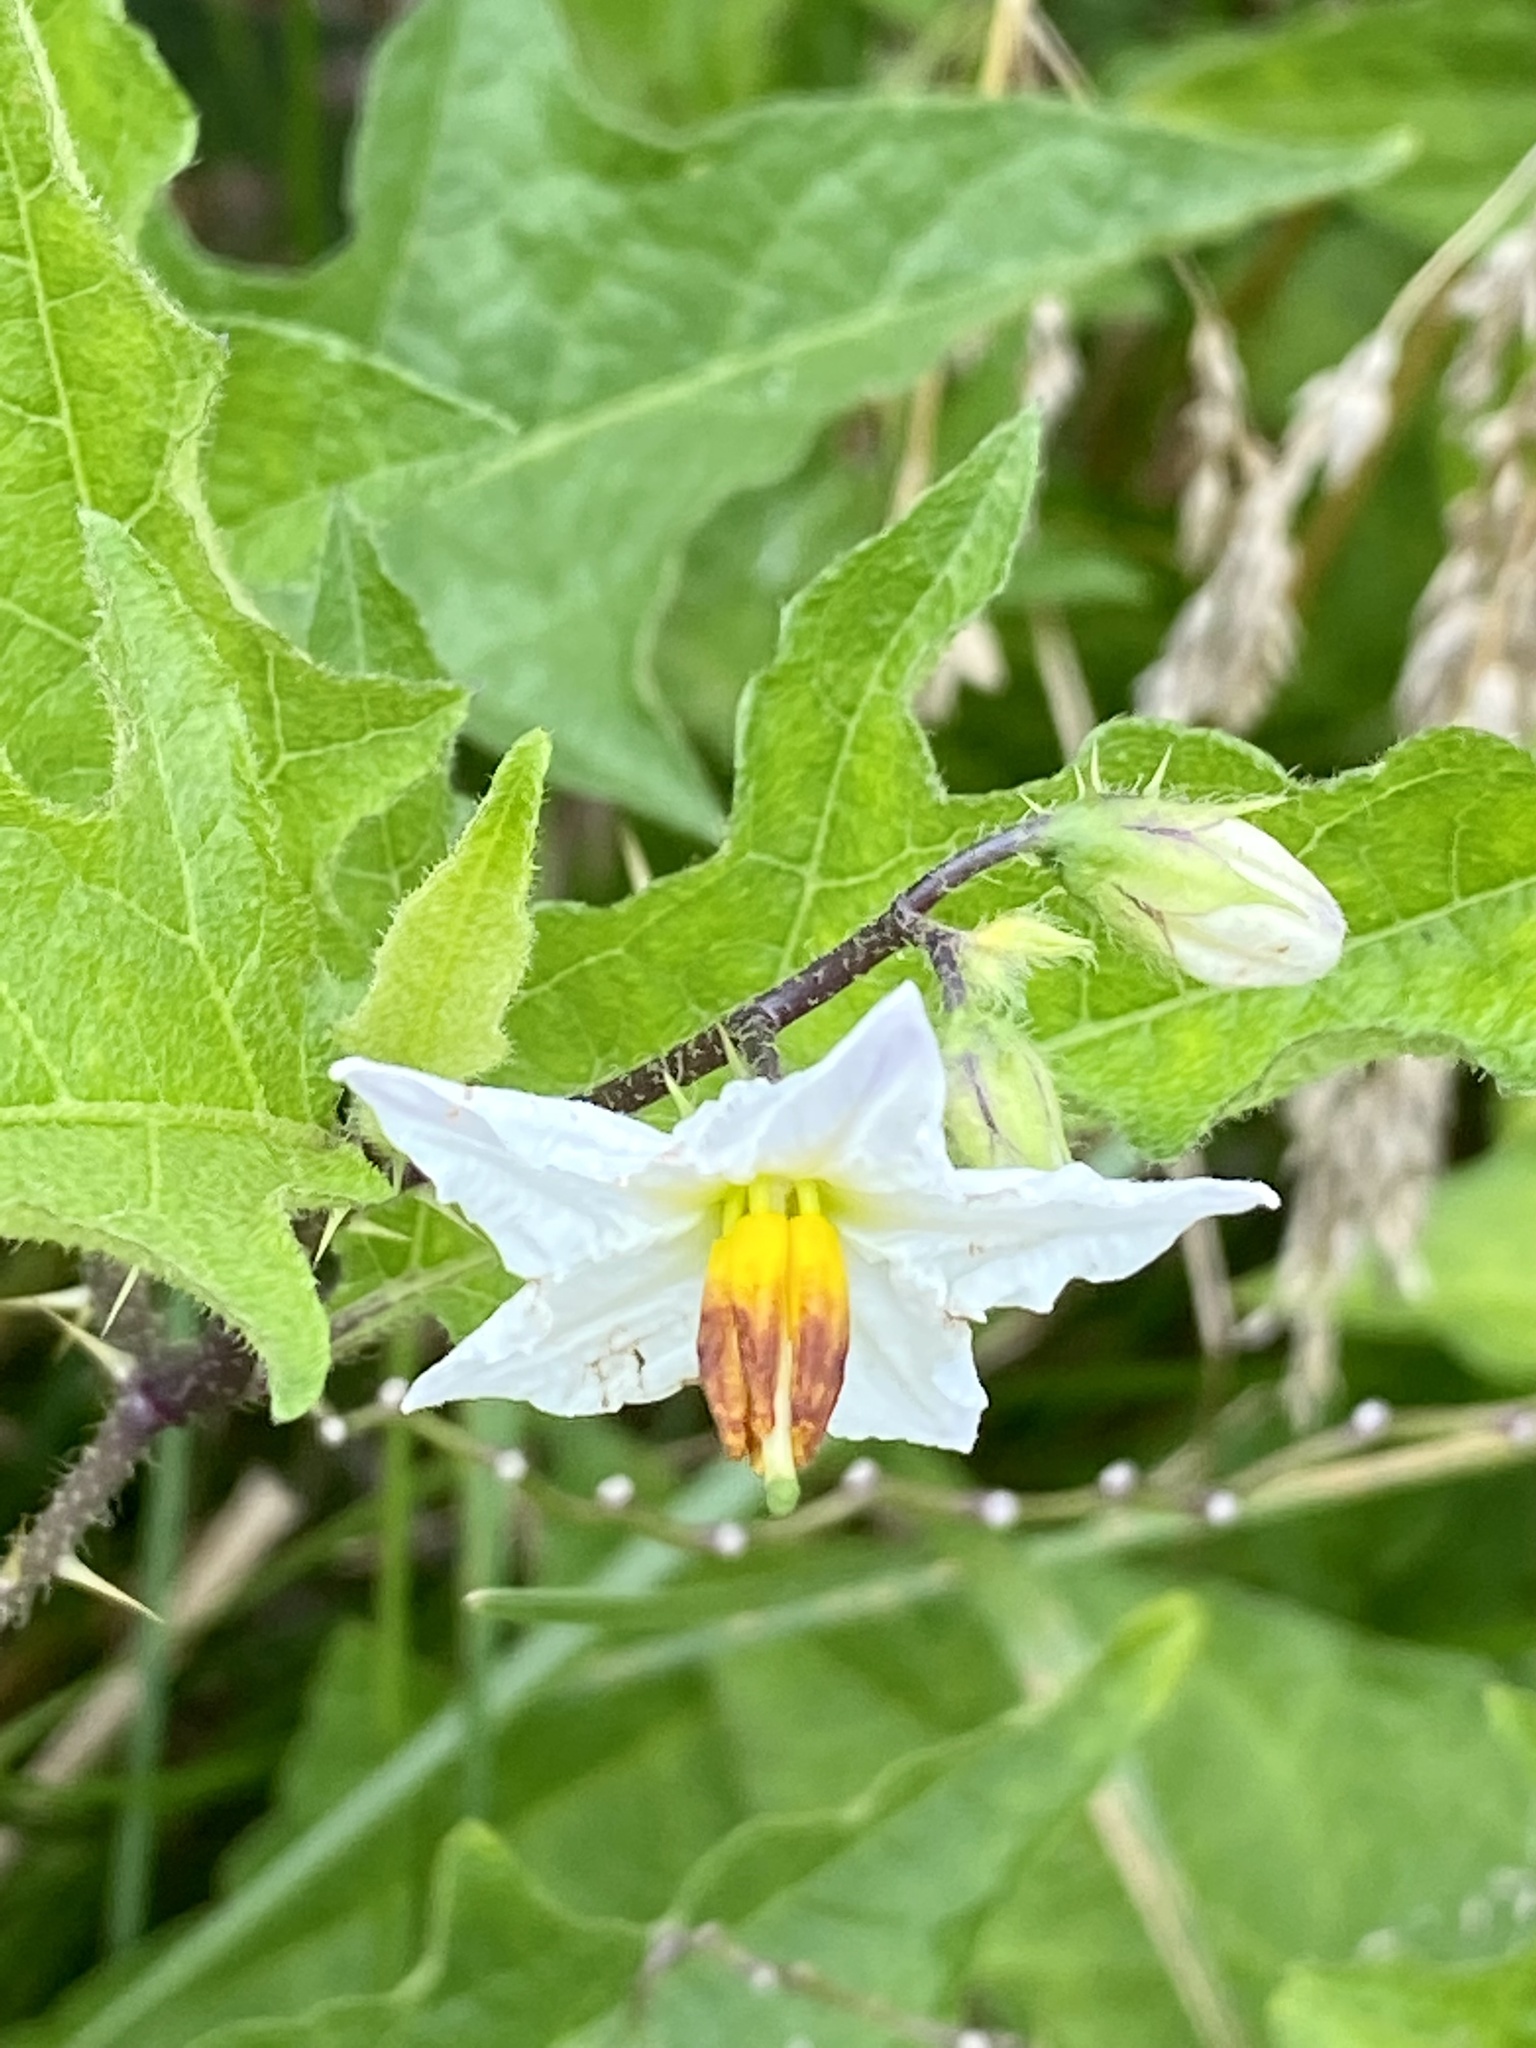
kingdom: Plantae
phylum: Tracheophyta
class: Magnoliopsida
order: Solanales
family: Solanaceae
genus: Solanum
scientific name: Solanum carolinense
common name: Horse-nettle
